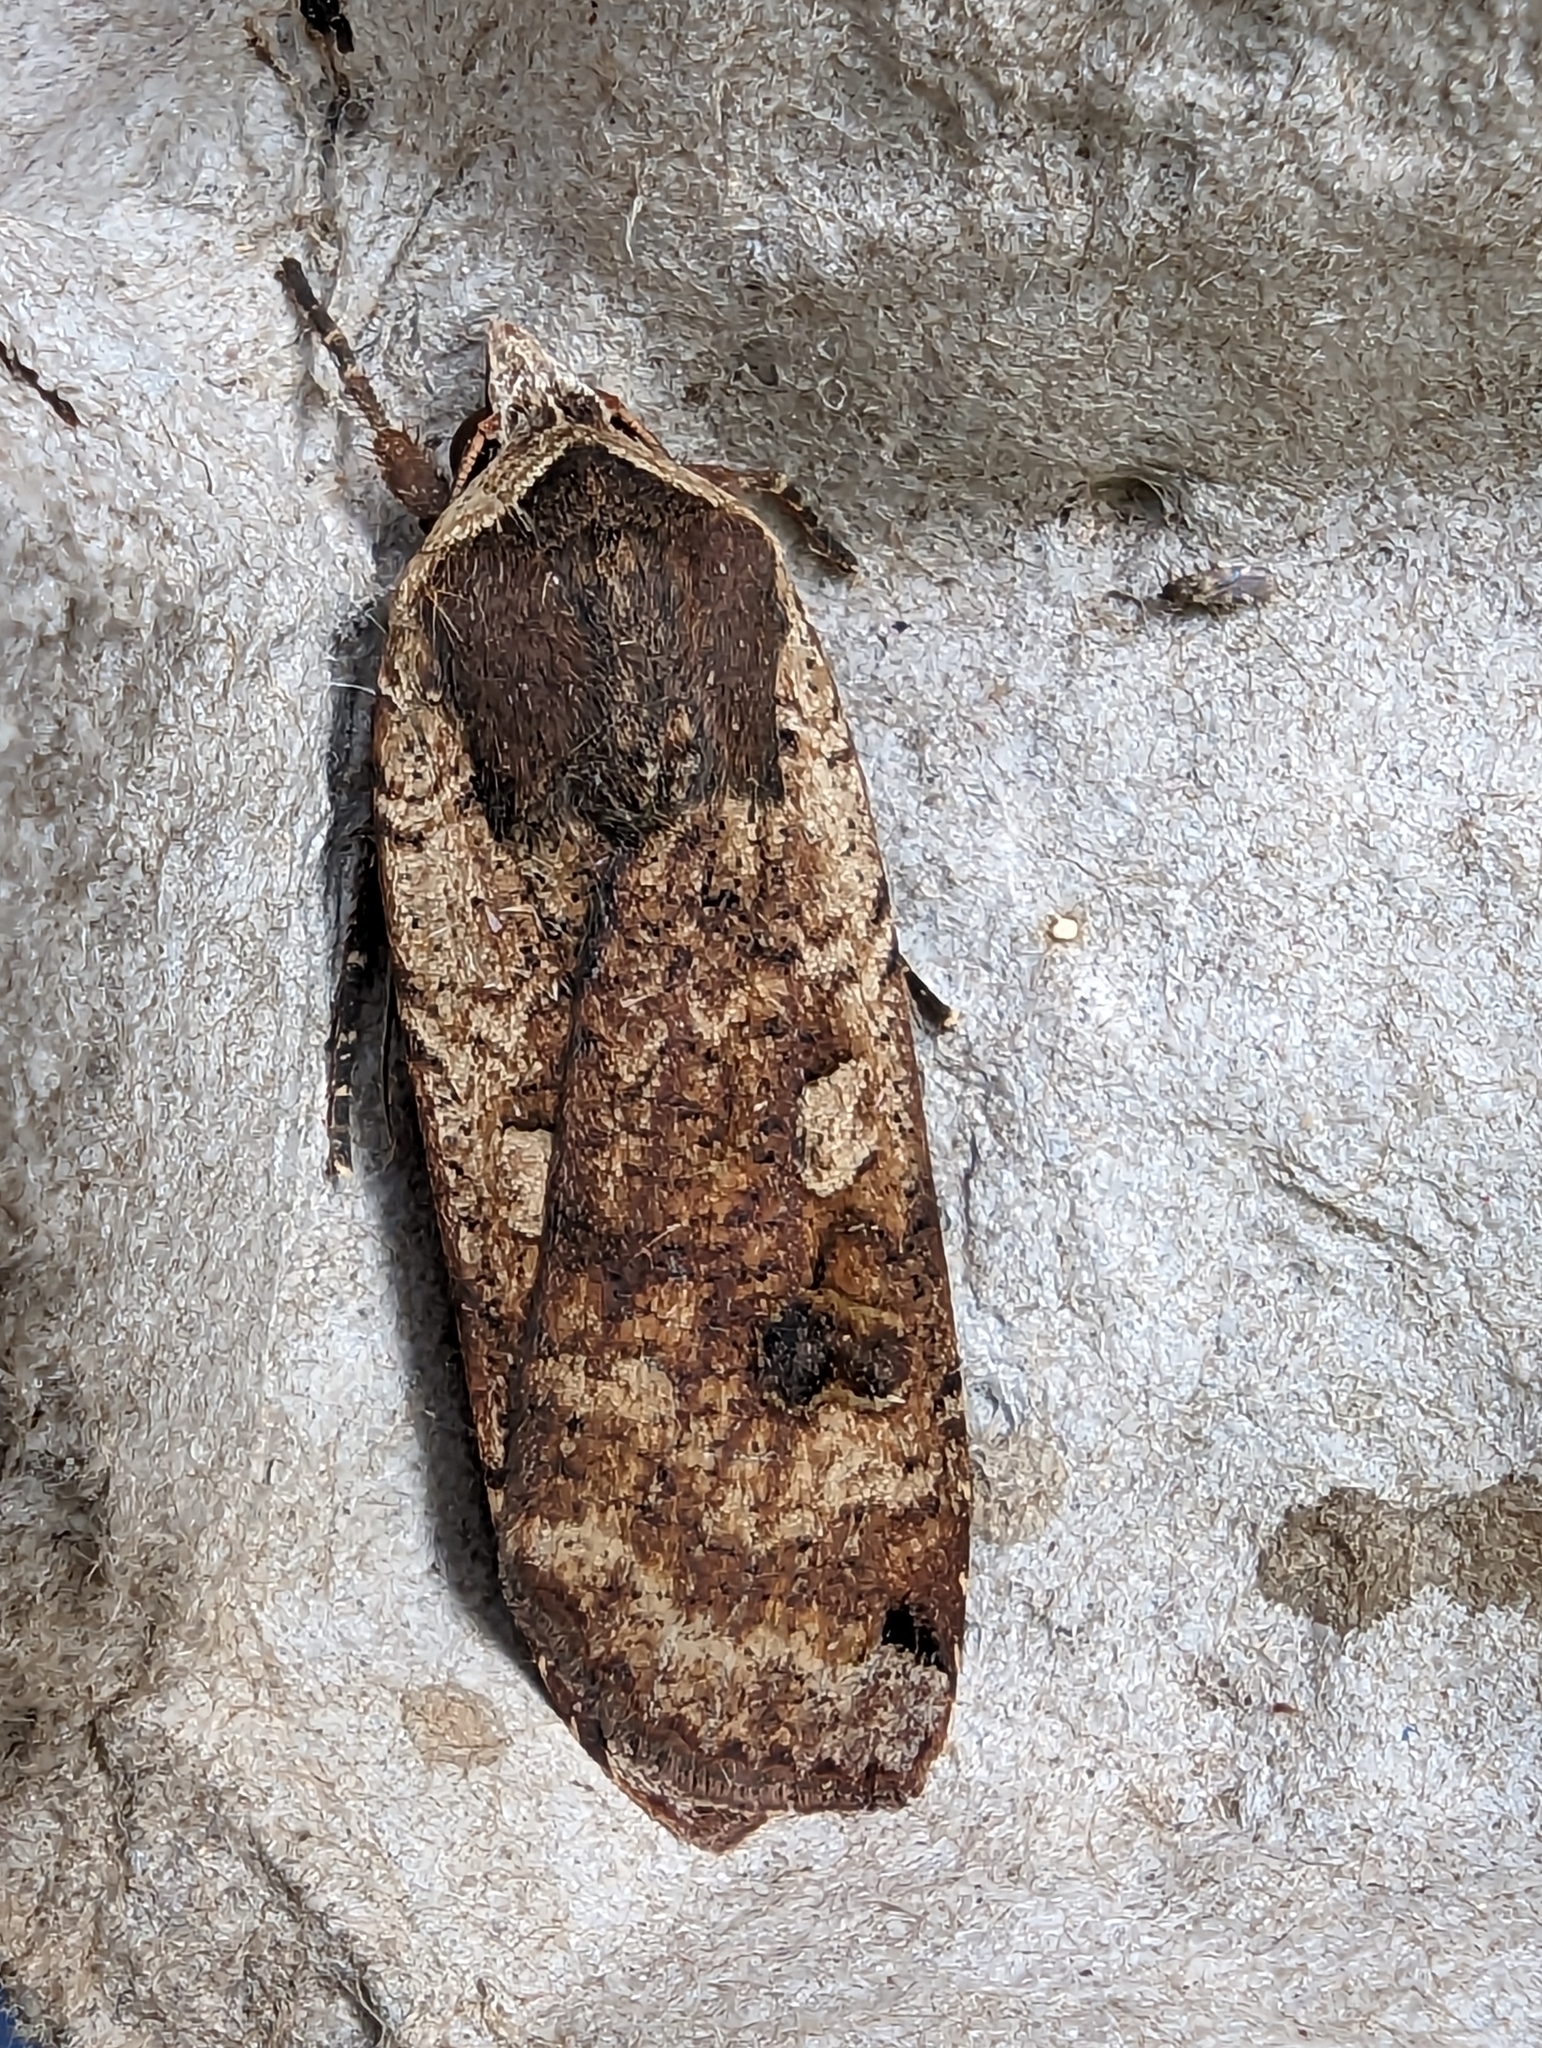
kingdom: Animalia
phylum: Arthropoda
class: Insecta
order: Lepidoptera
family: Noctuidae
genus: Noctua
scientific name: Noctua pronuba
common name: Large yellow underwing
